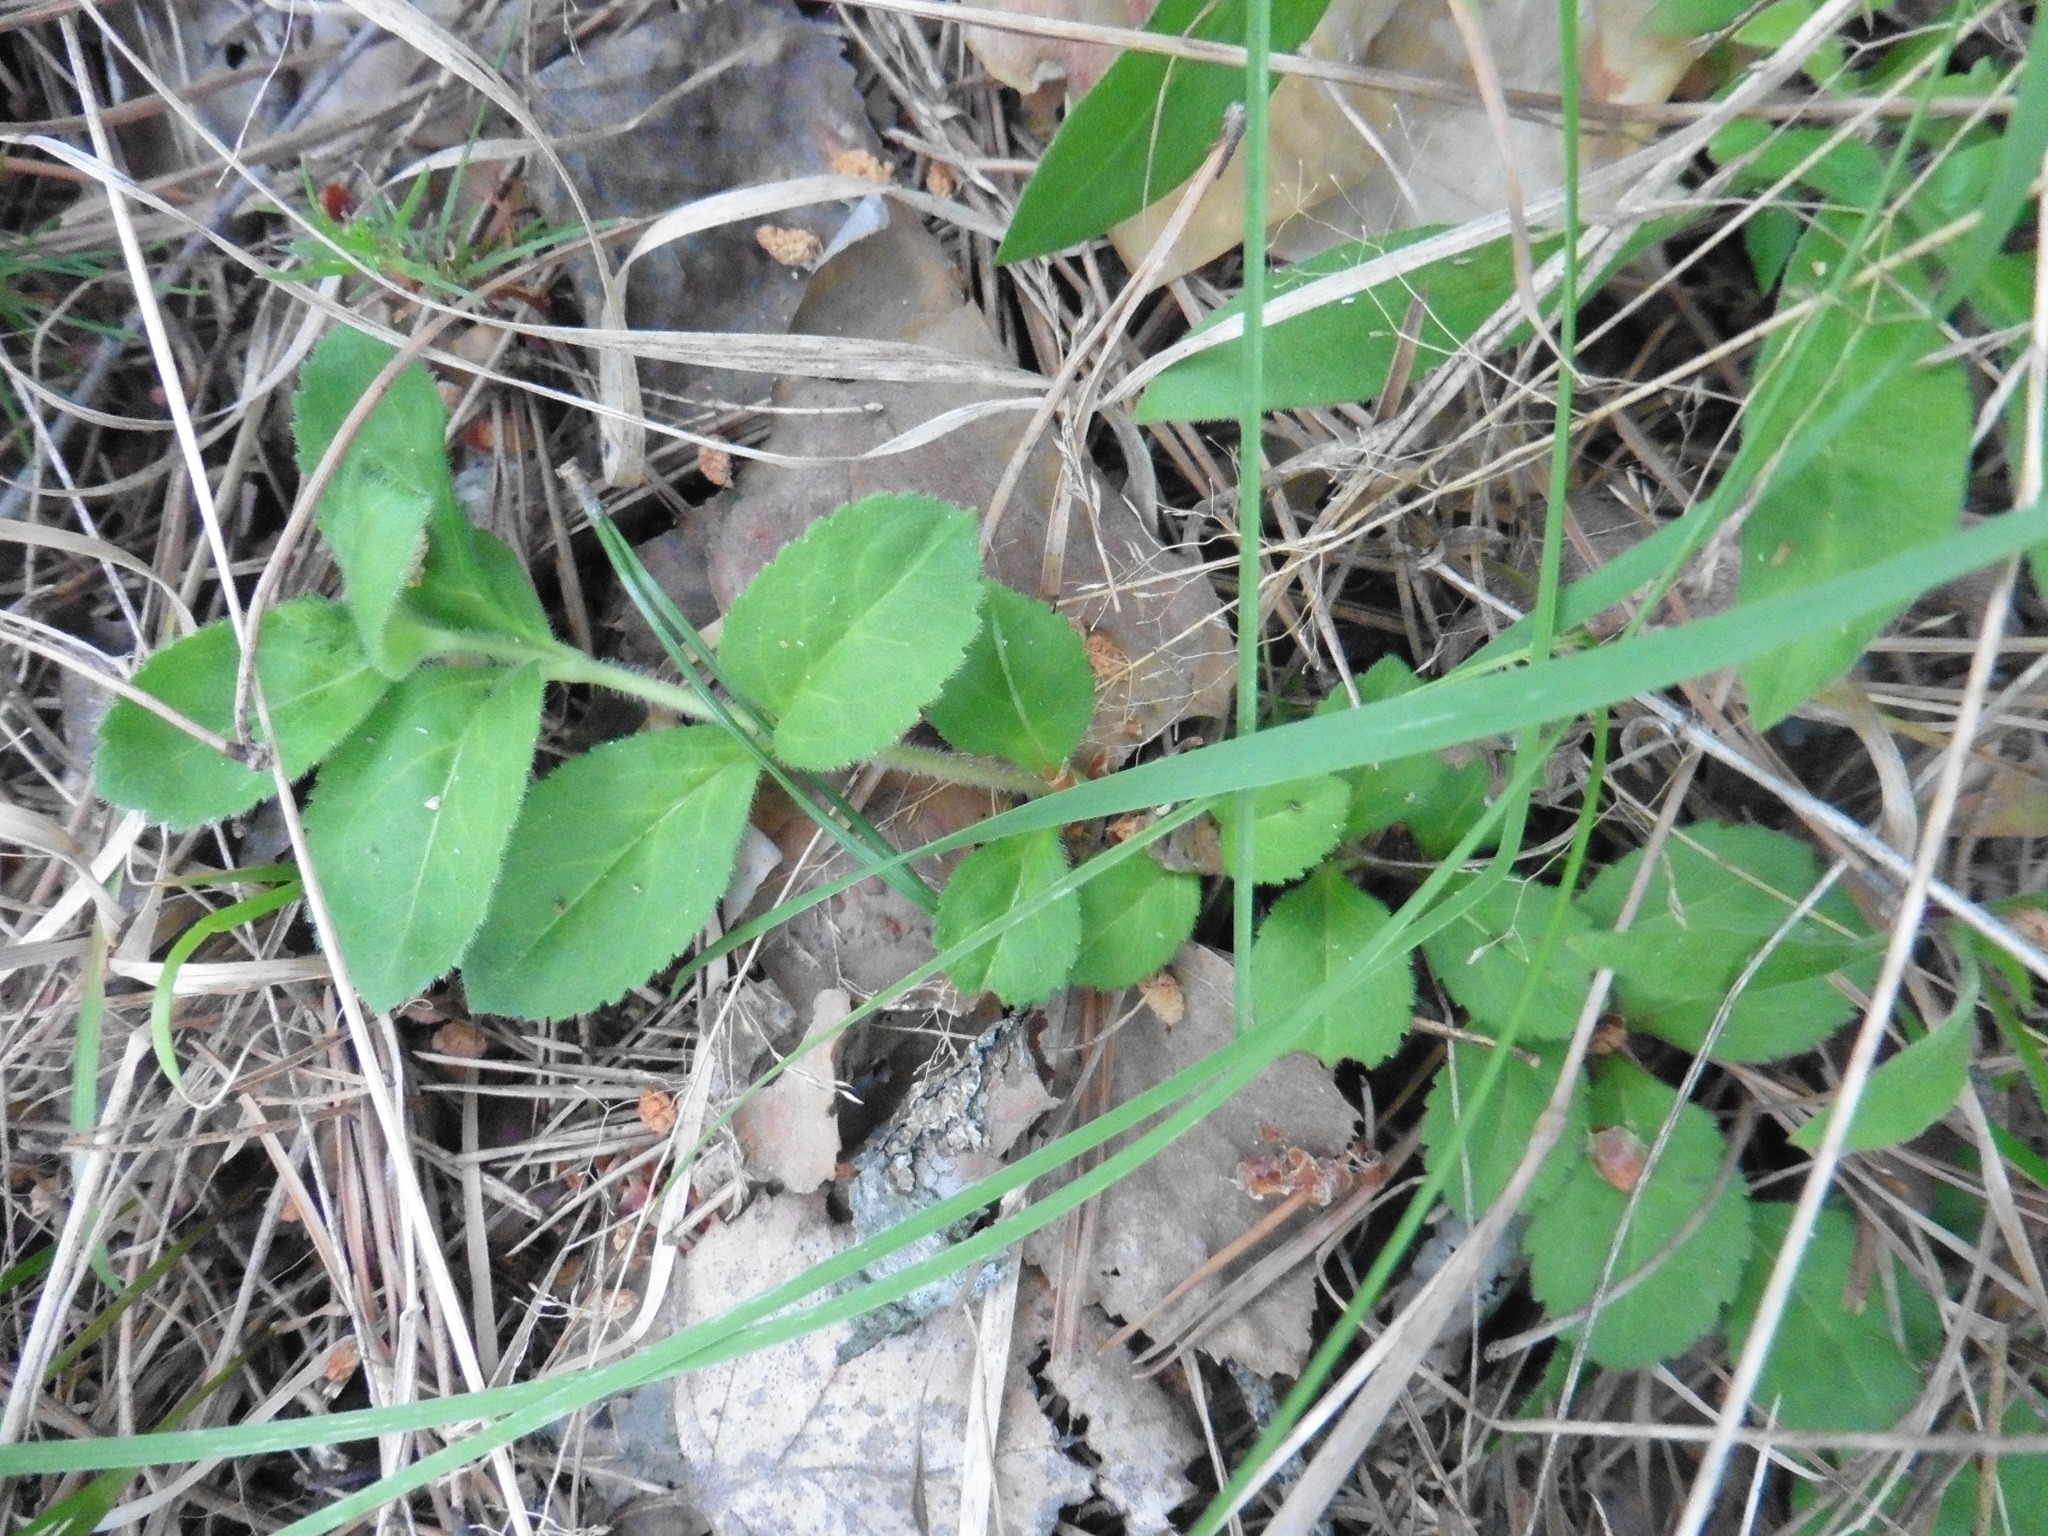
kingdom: Plantae
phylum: Tracheophyta
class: Magnoliopsida
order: Lamiales
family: Plantaginaceae
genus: Veronica
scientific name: Veronica officinalis
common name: Common speedwell
